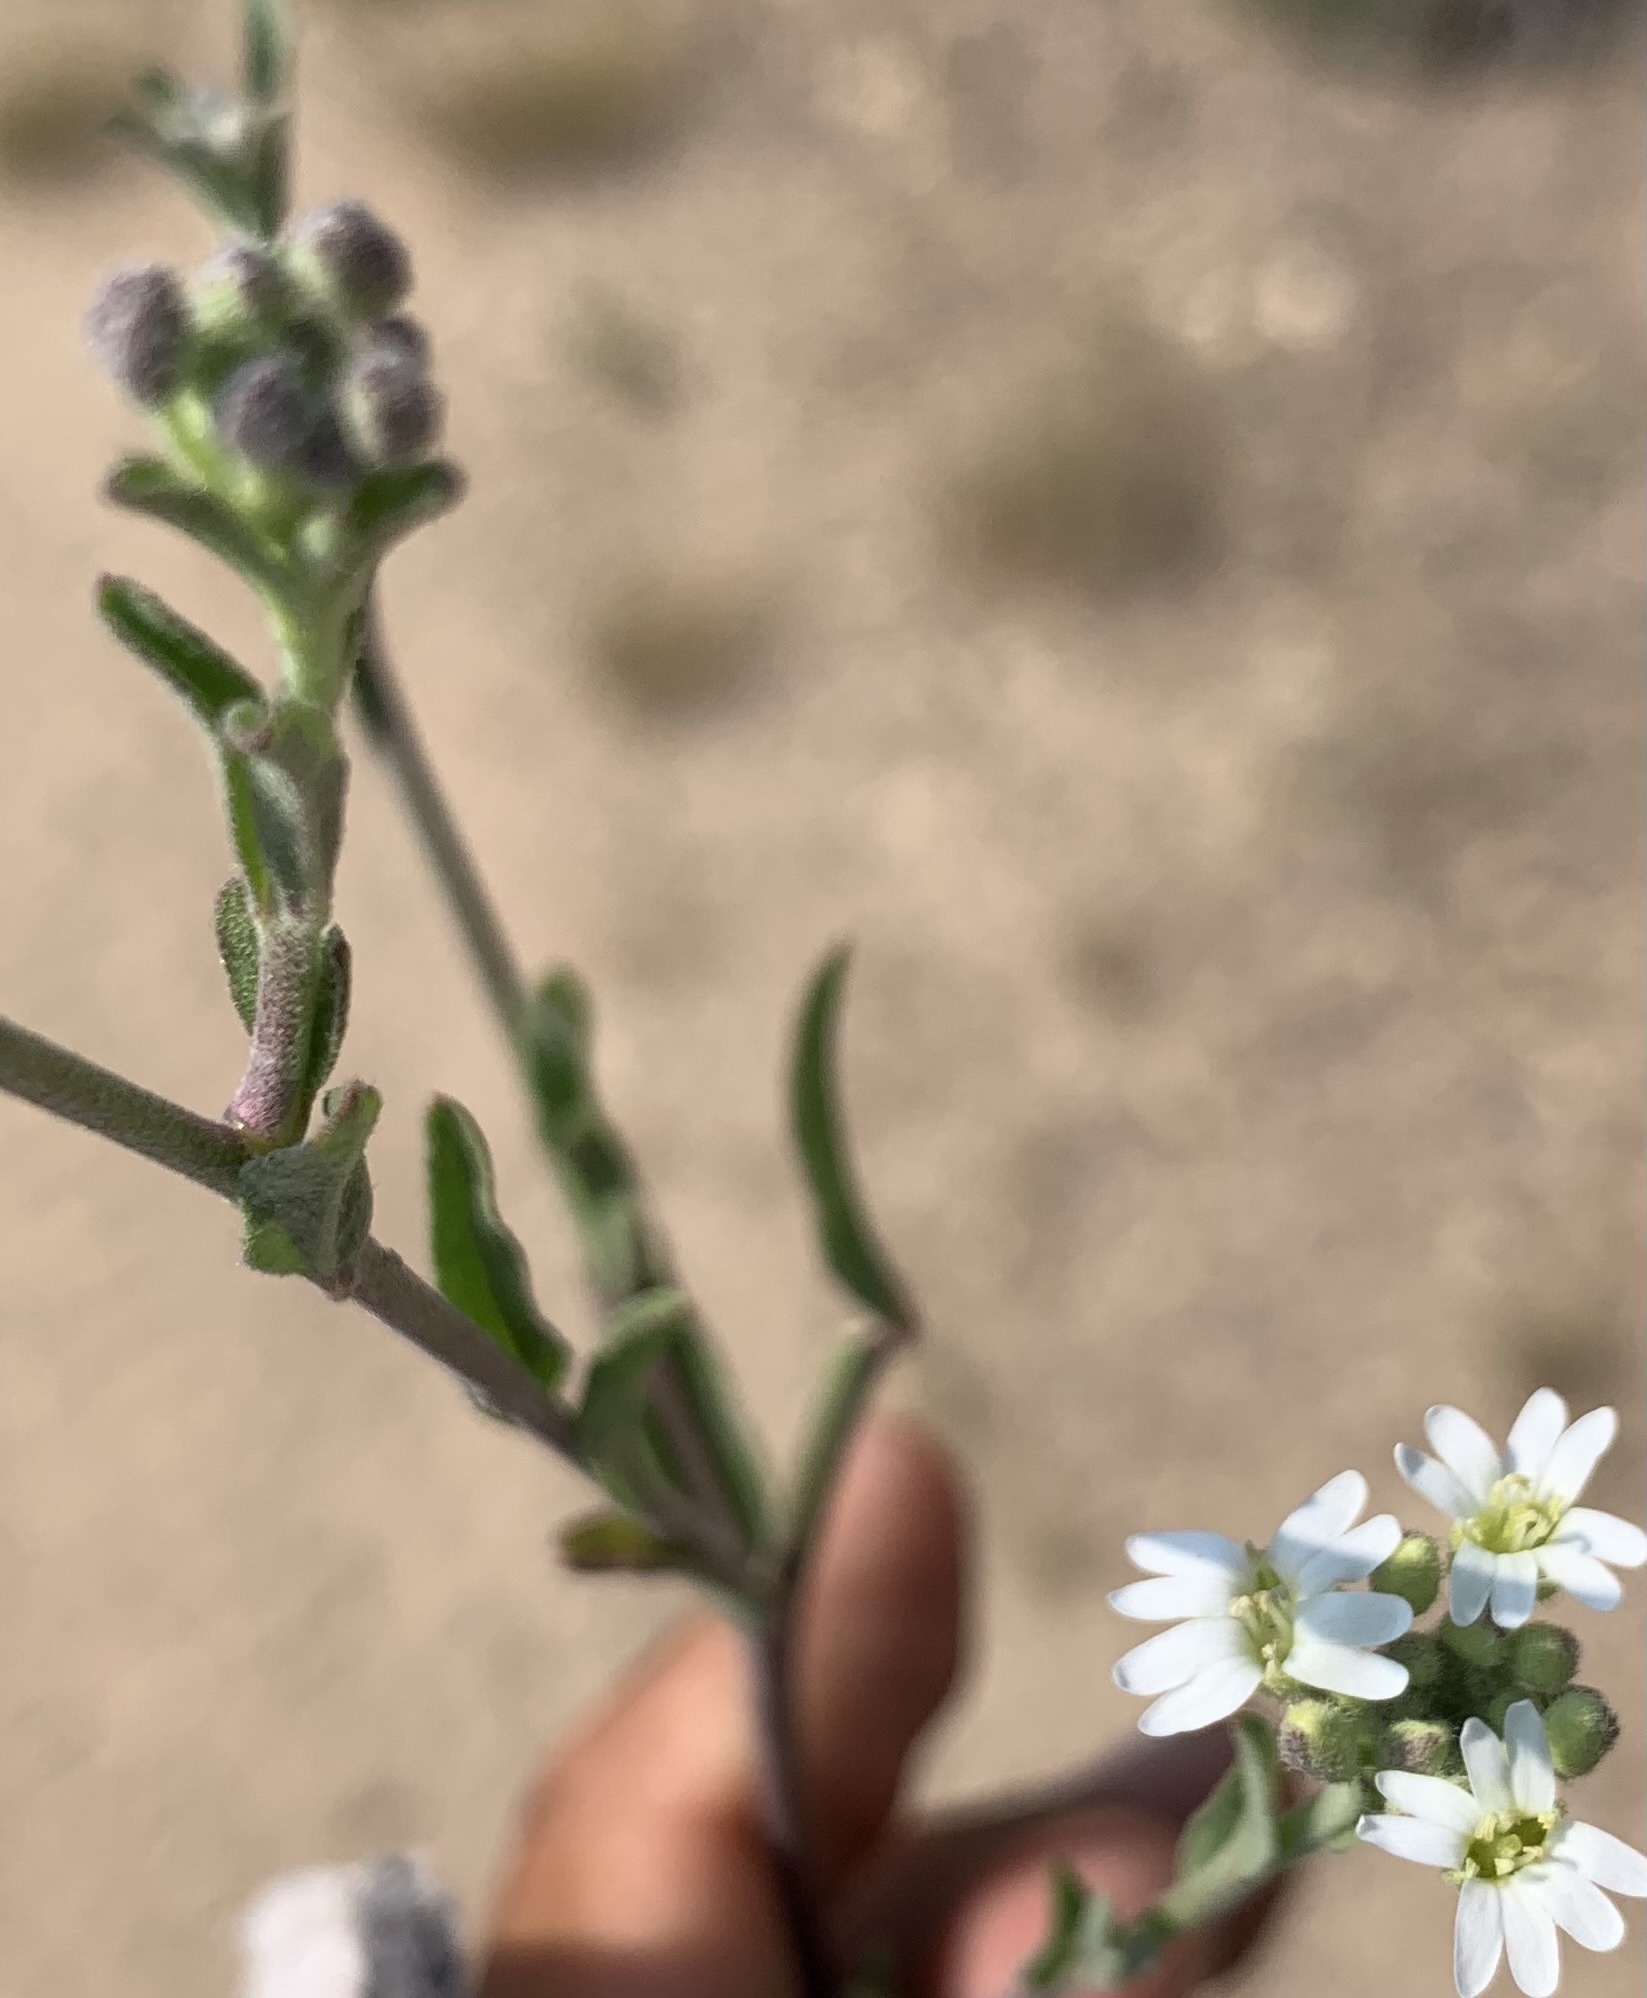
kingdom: Plantae
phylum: Tracheophyta
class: Magnoliopsida
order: Brassicales
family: Brassicaceae
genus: Berteroa
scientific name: Berteroa incana
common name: Hoary alison
